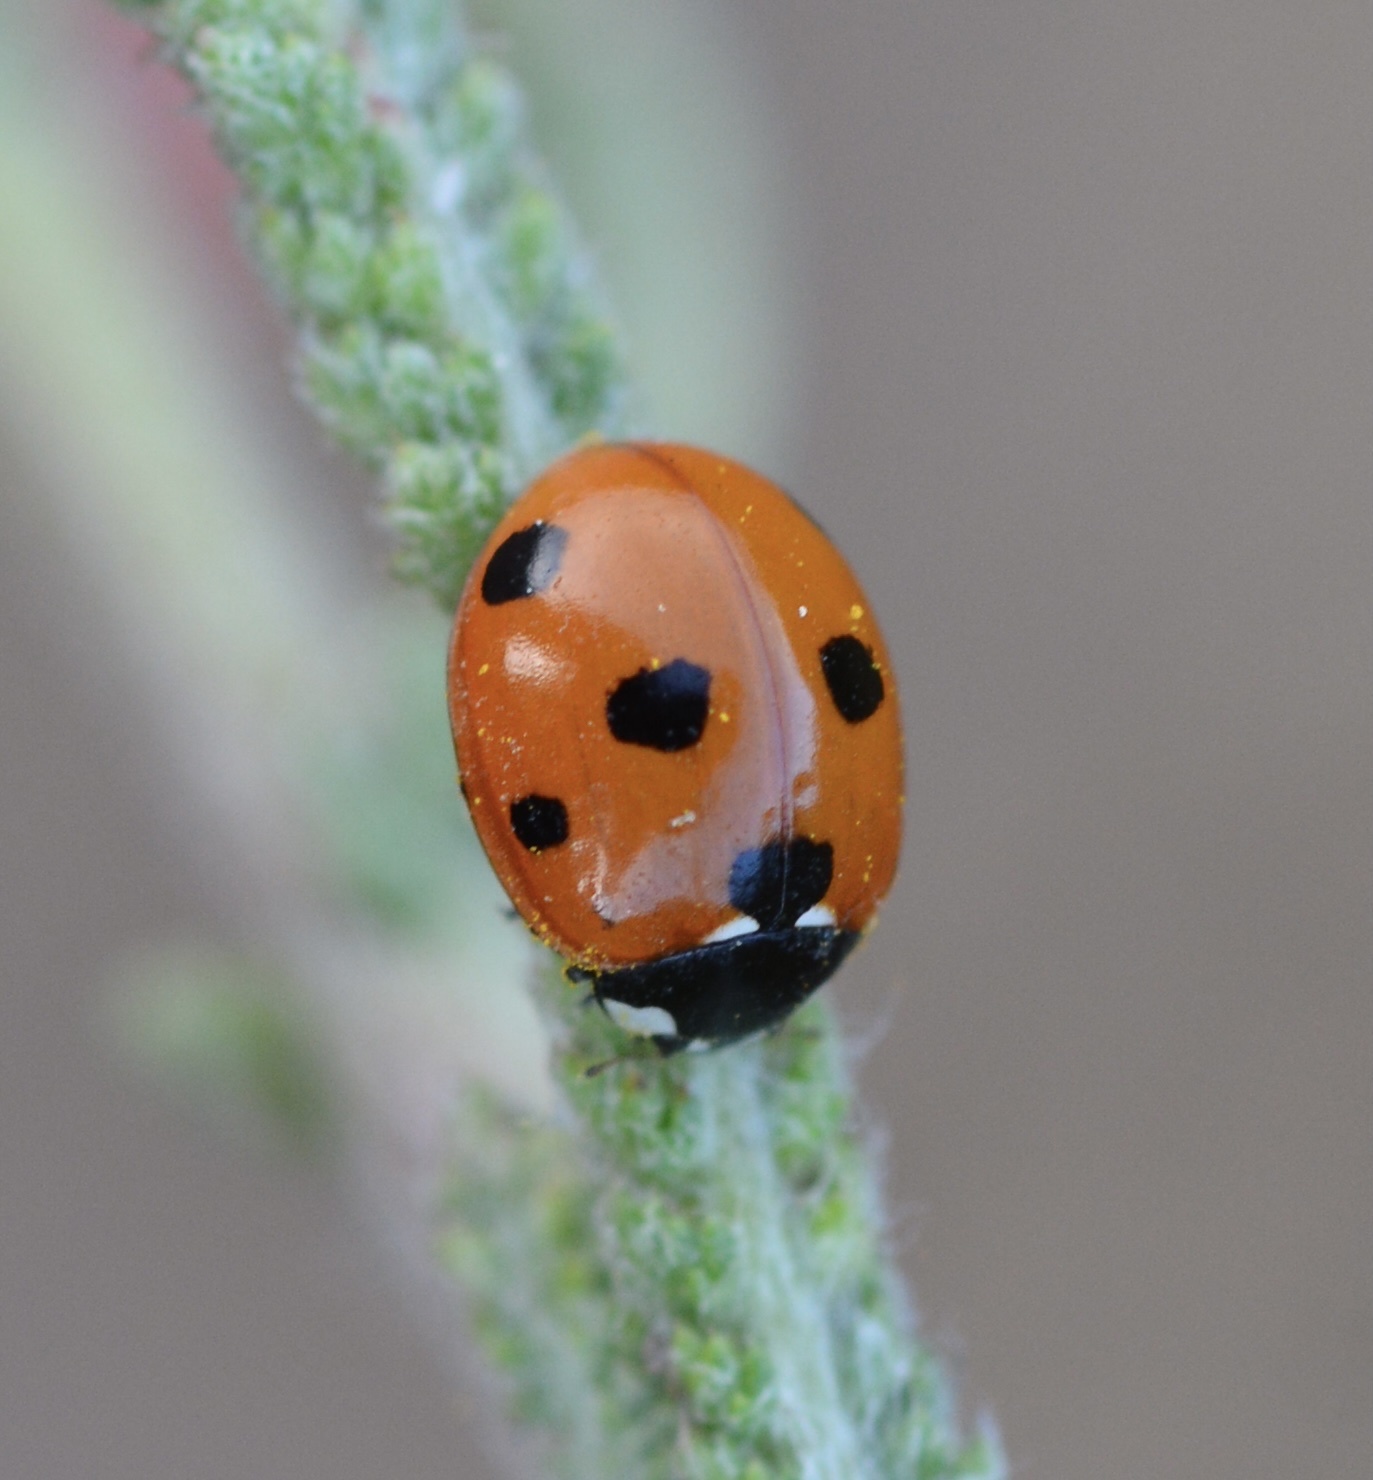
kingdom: Animalia
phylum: Arthropoda
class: Insecta
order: Coleoptera
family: Coccinellidae
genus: Coccinella
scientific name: Coccinella septempunctata
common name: Sevenspotted lady beetle
